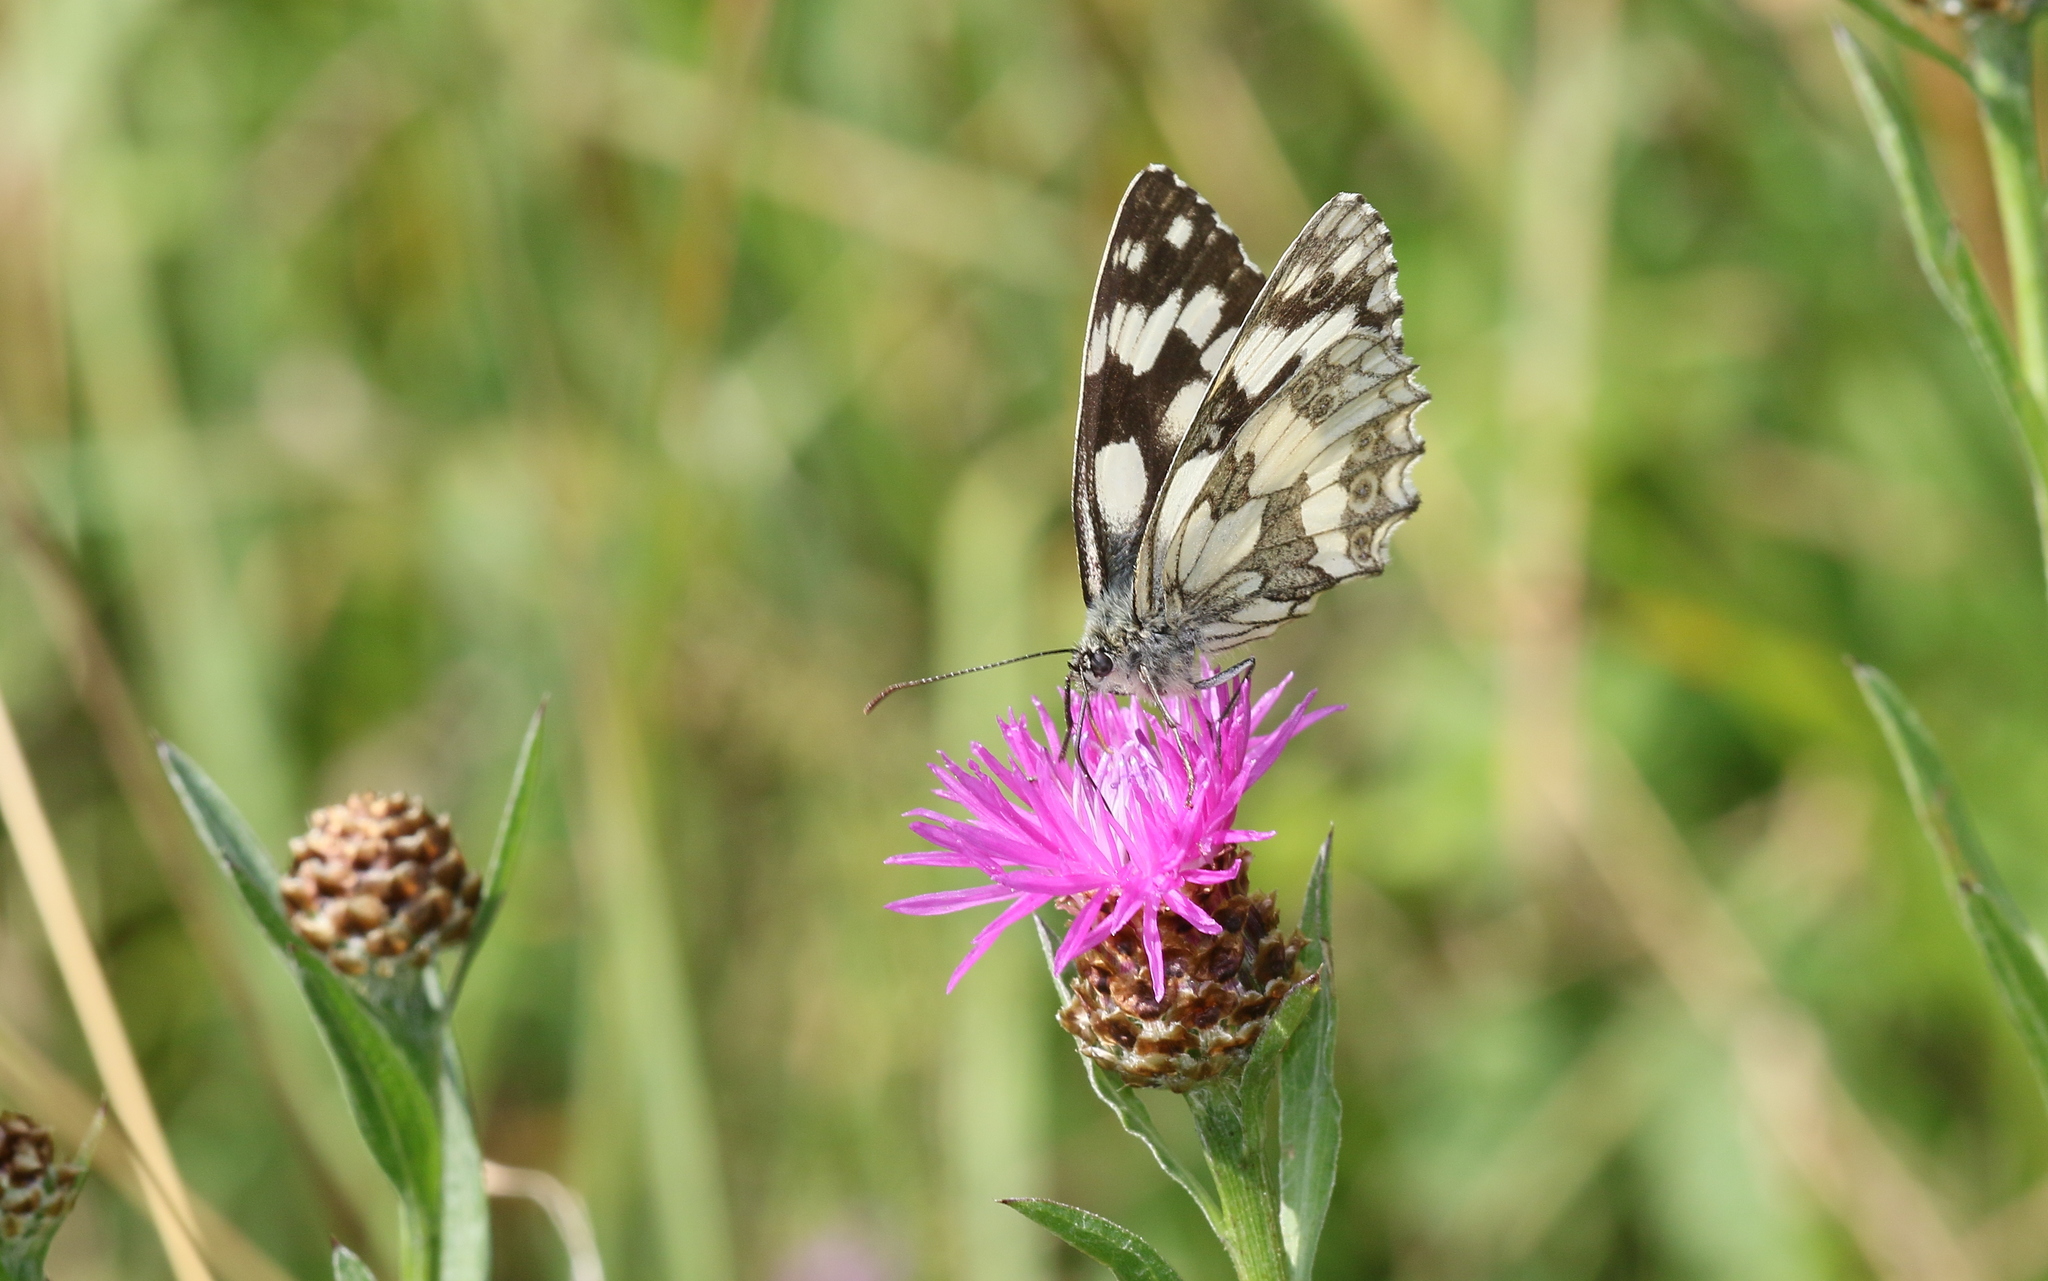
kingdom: Animalia
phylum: Arthropoda
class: Insecta
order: Lepidoptera
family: Nymphalidae
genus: Melanargia
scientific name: Melanargia galathea
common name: Marbled white
